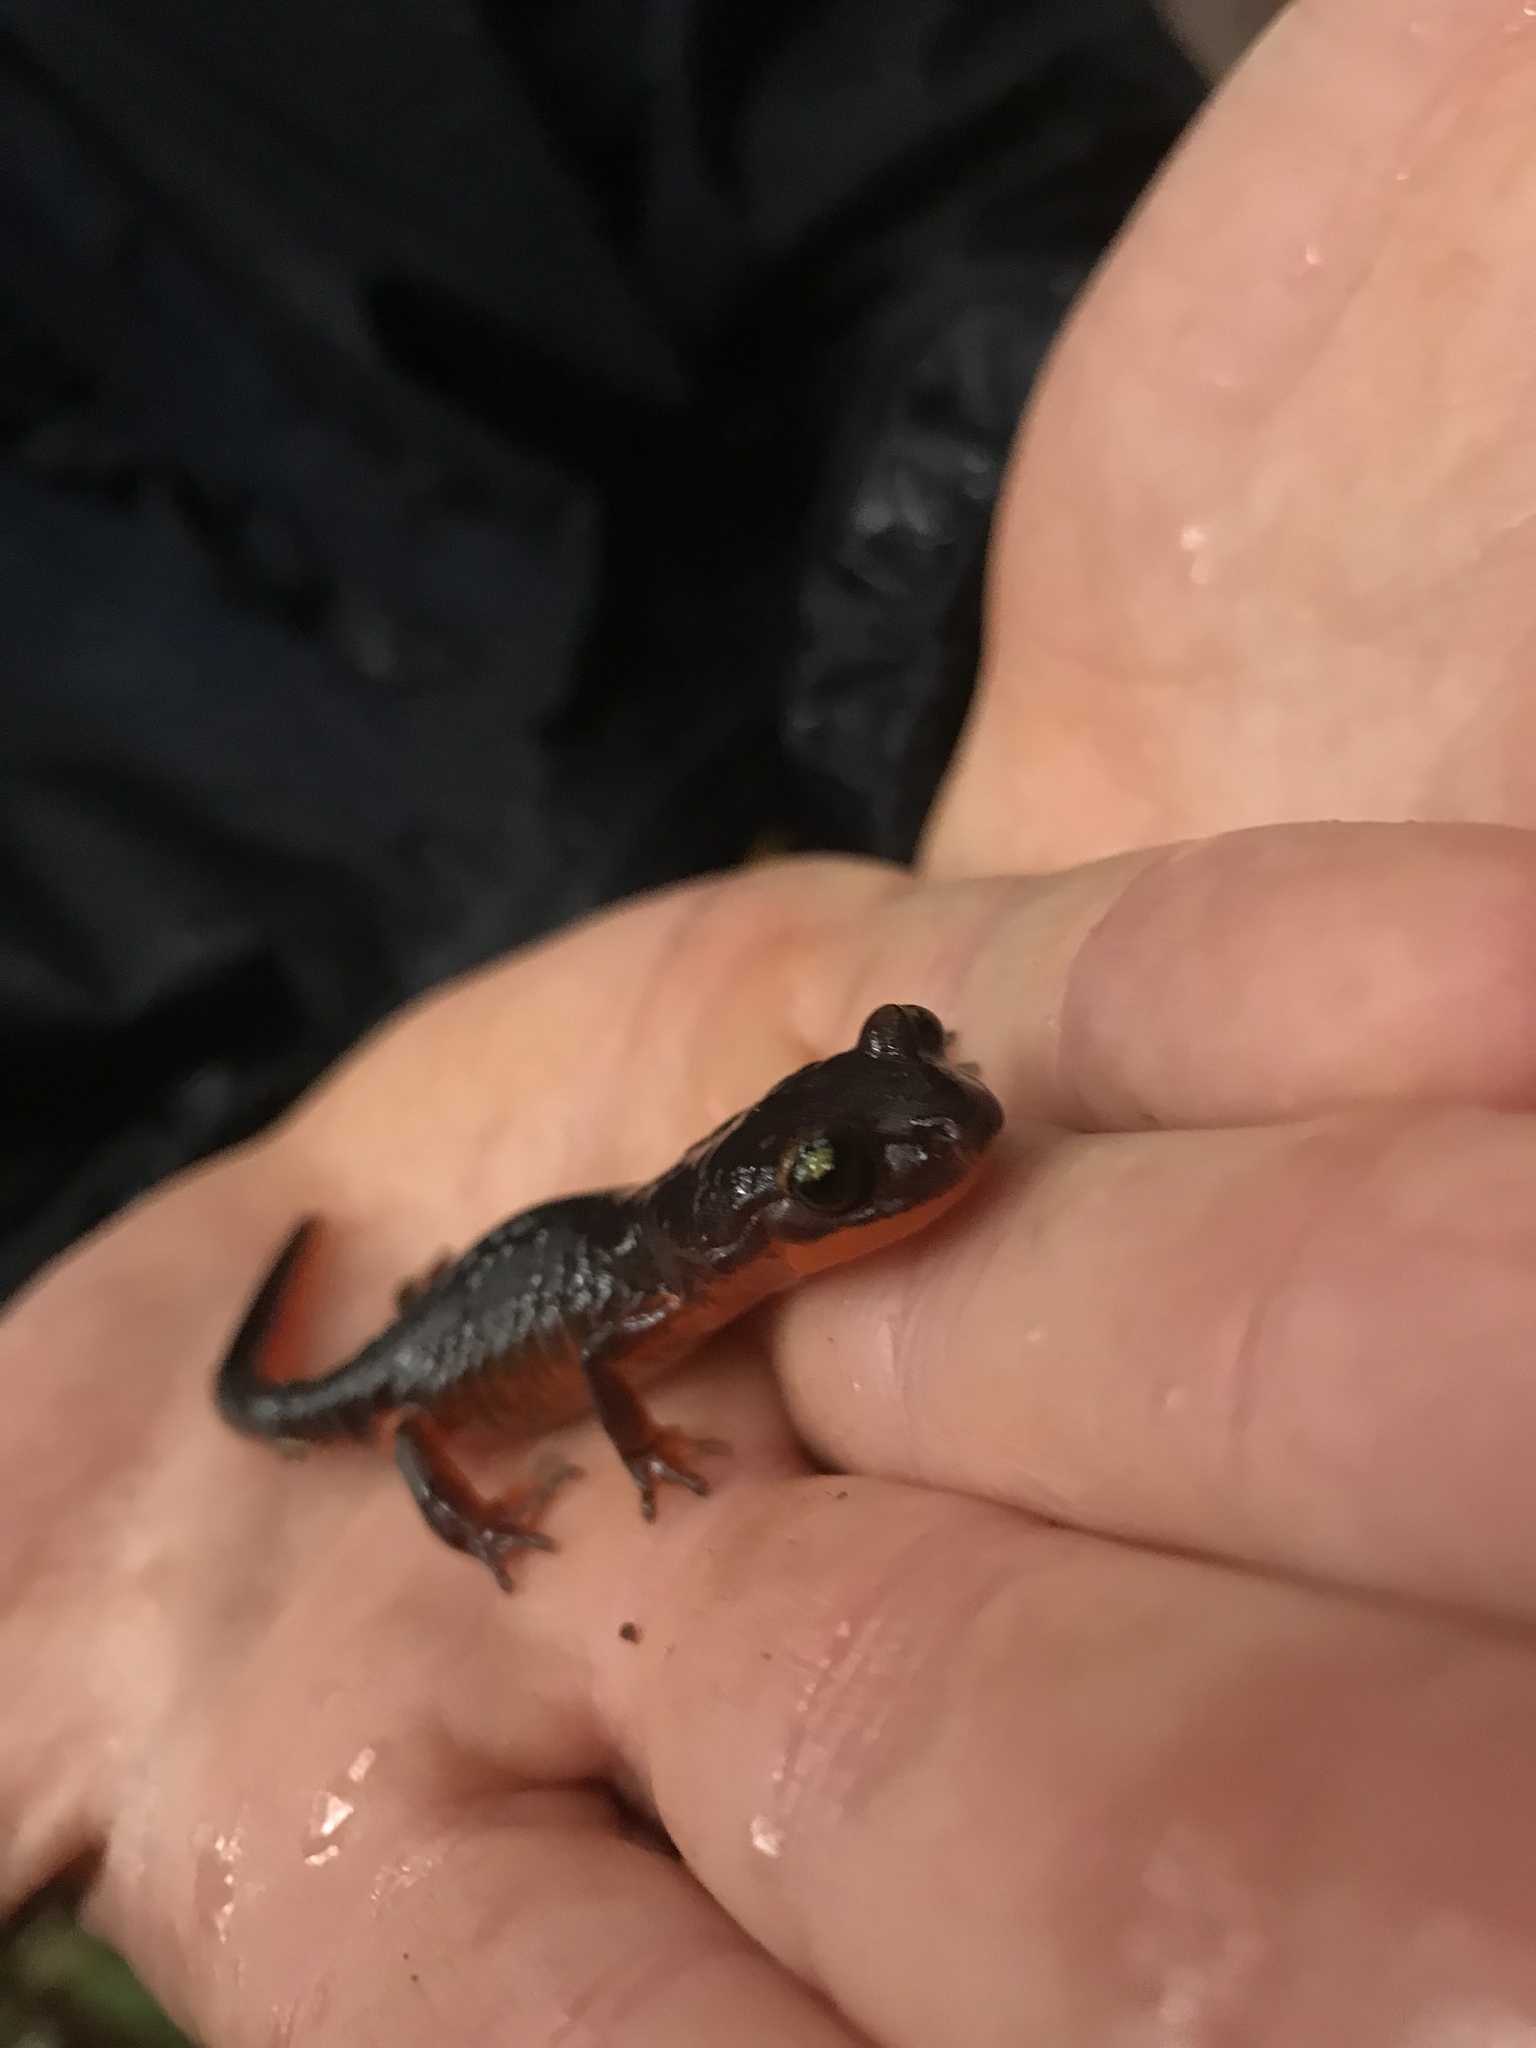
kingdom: Animalia
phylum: Chordata
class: Amphibia
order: Caudata
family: Plethodontidae
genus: Ensatina
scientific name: Ensatina eschscholtzii
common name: Ensatina
